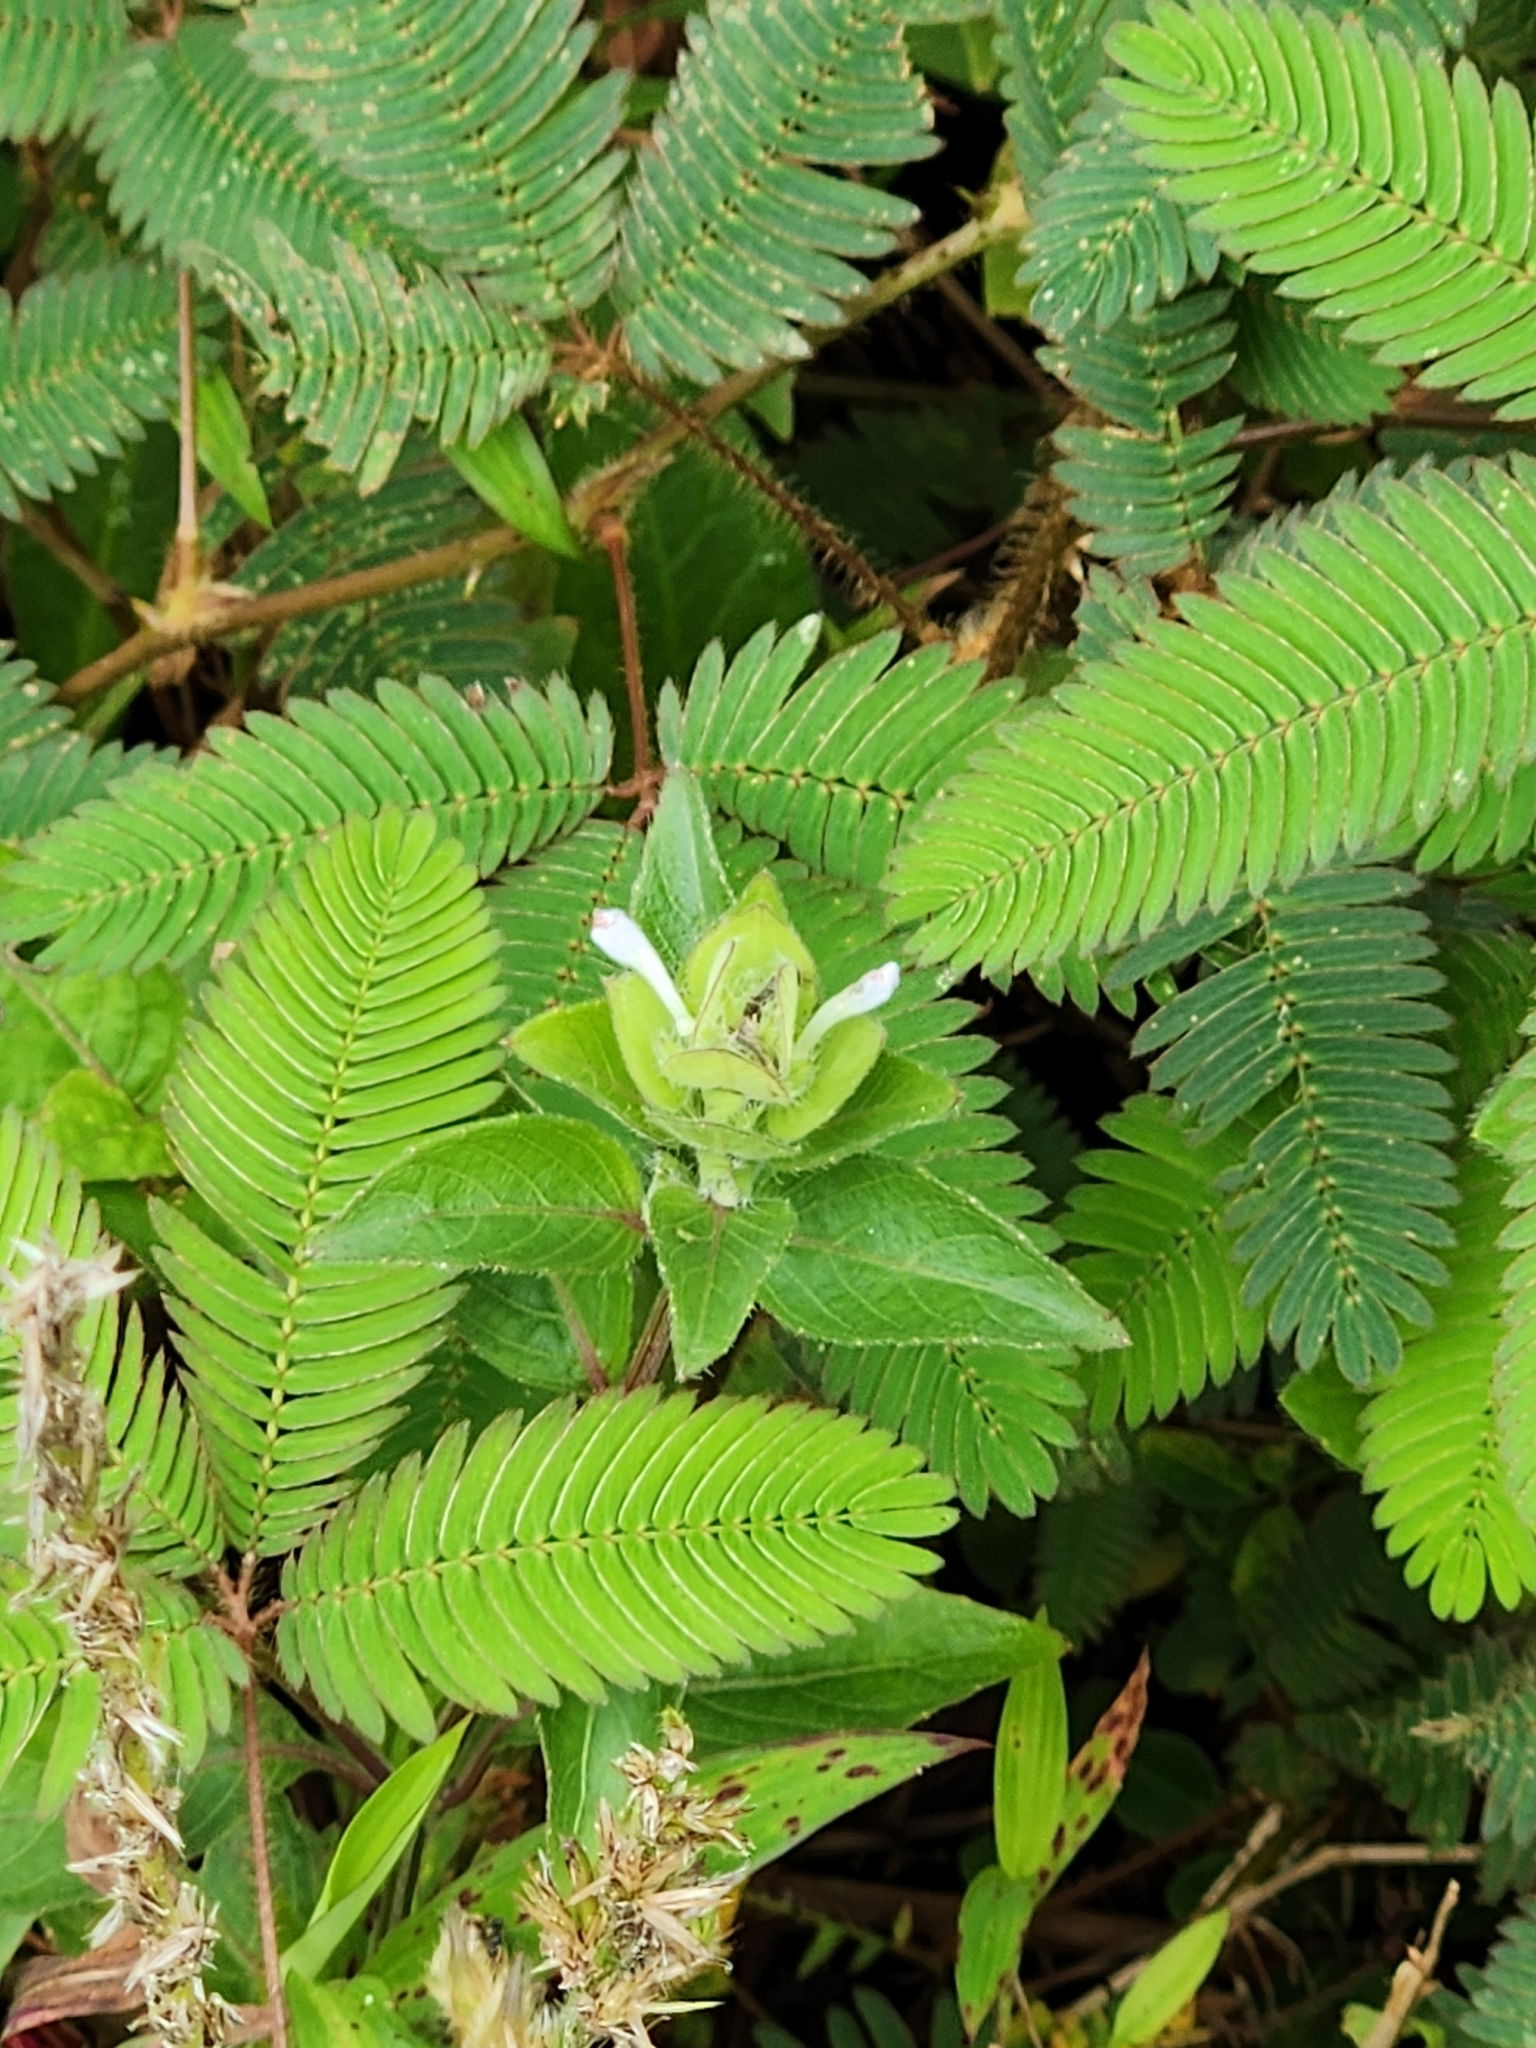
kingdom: Plantae
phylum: Tracheophyta
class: Magnoliopsida
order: Lamiales
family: Acanthaceae
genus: Ruellia
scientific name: Ruellia blechum
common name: Browne's blechum
